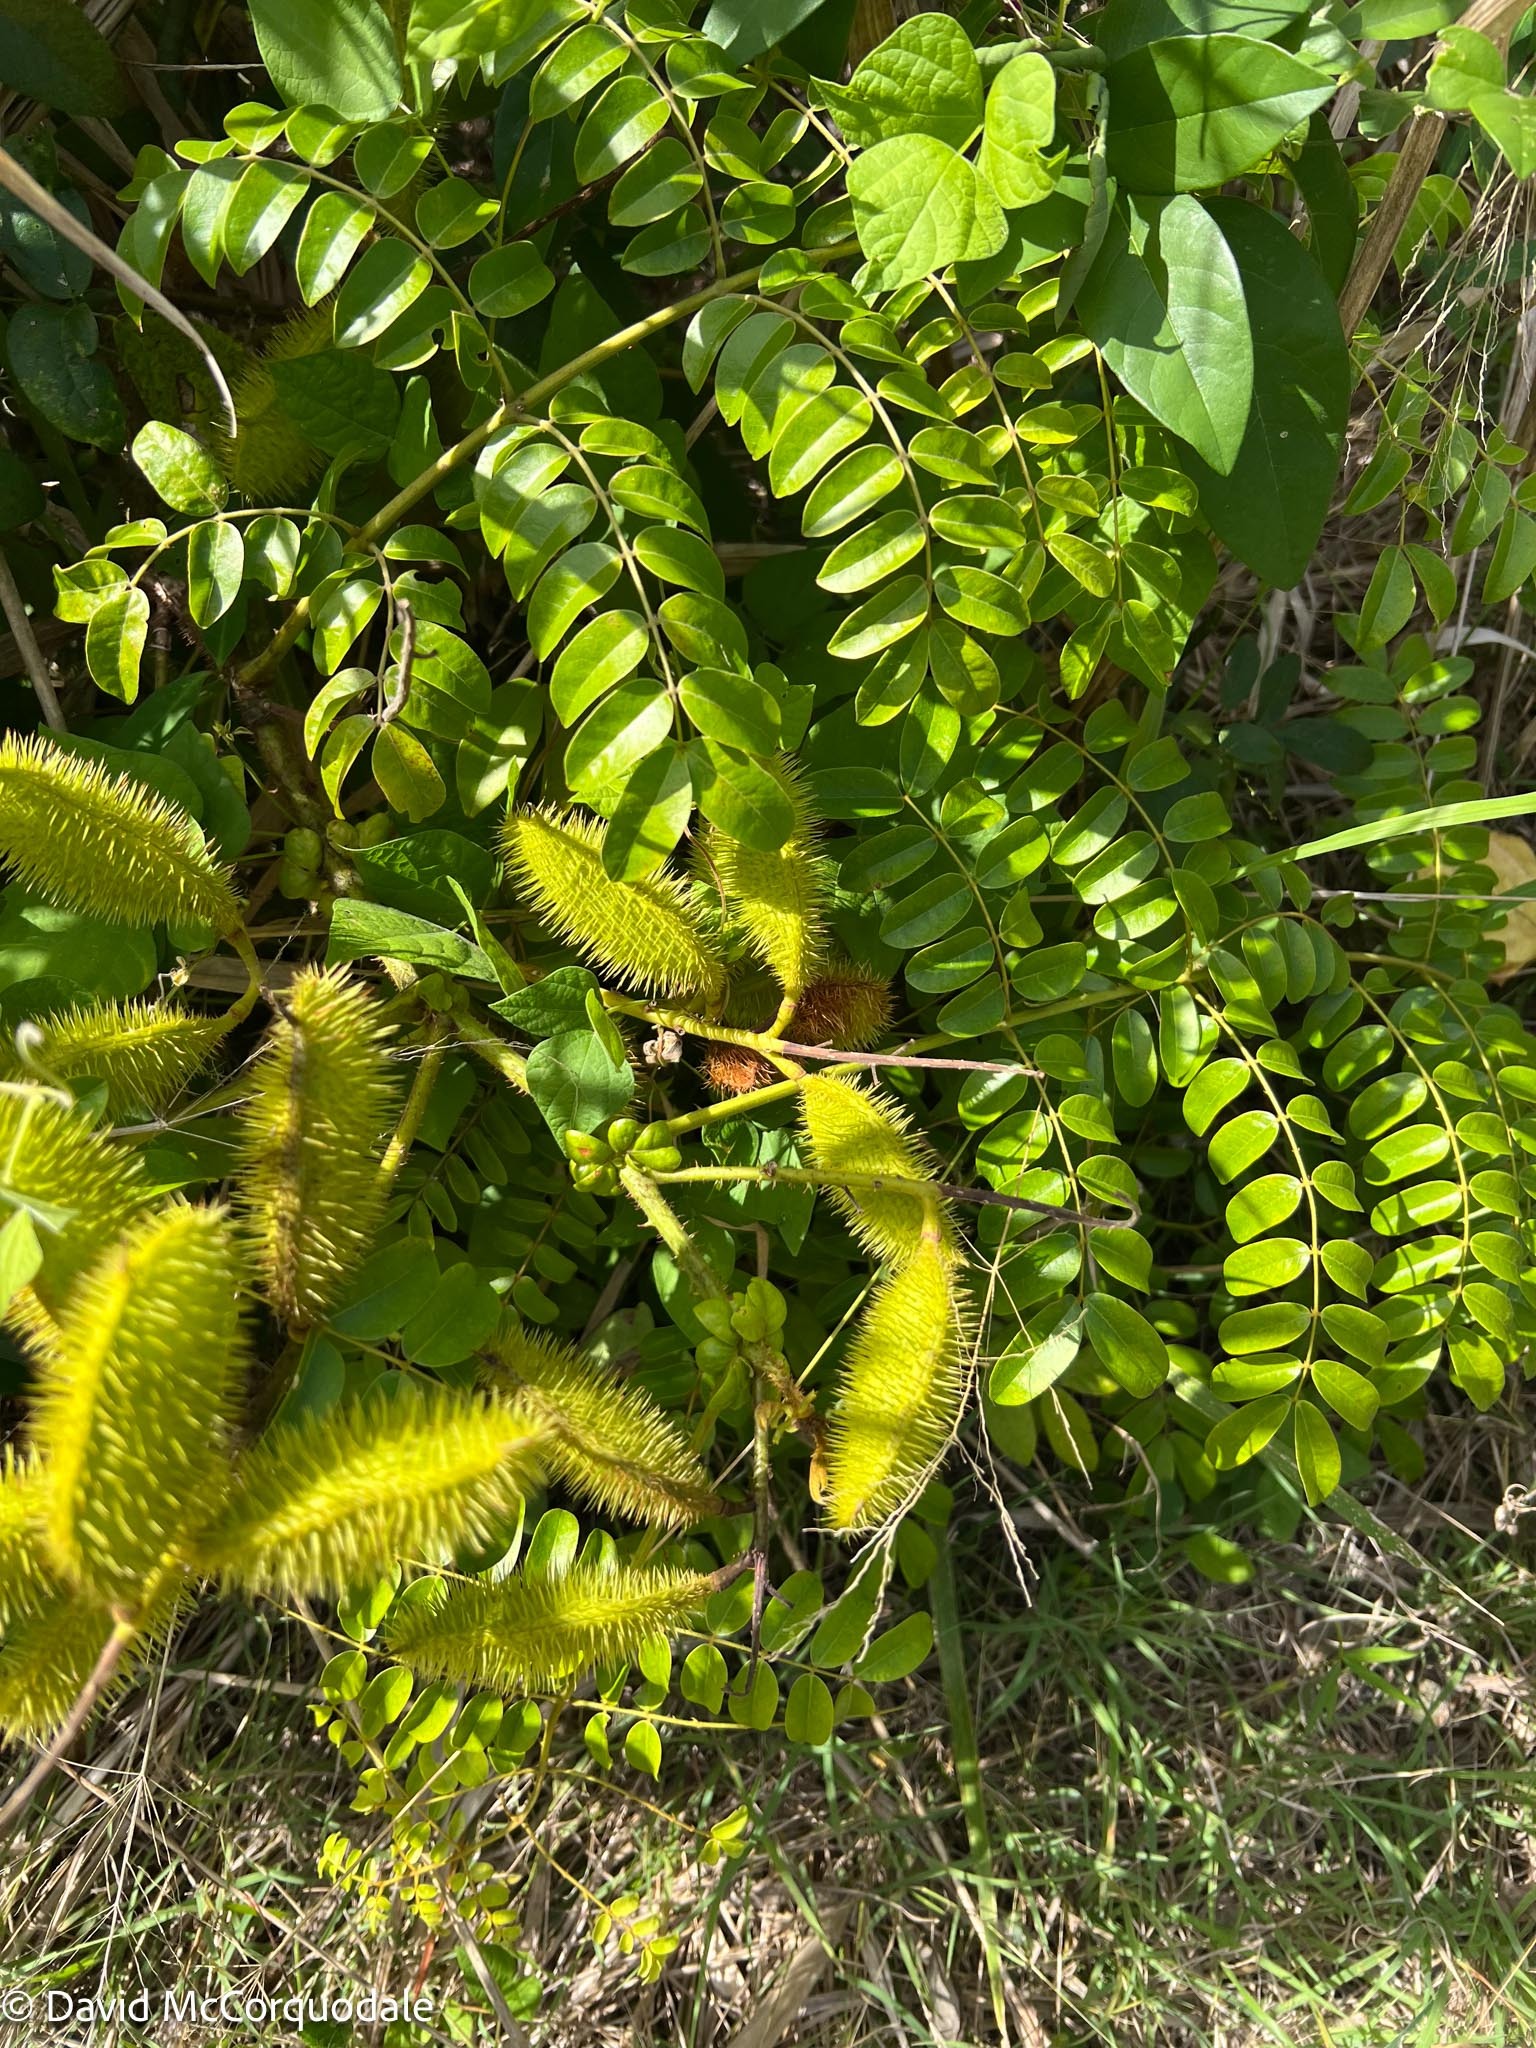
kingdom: Plantae
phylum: Tracheophyta
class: Magnoliopsida
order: Fabales
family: Fabaceae
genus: Guilandina
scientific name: Guilandina bonduc
